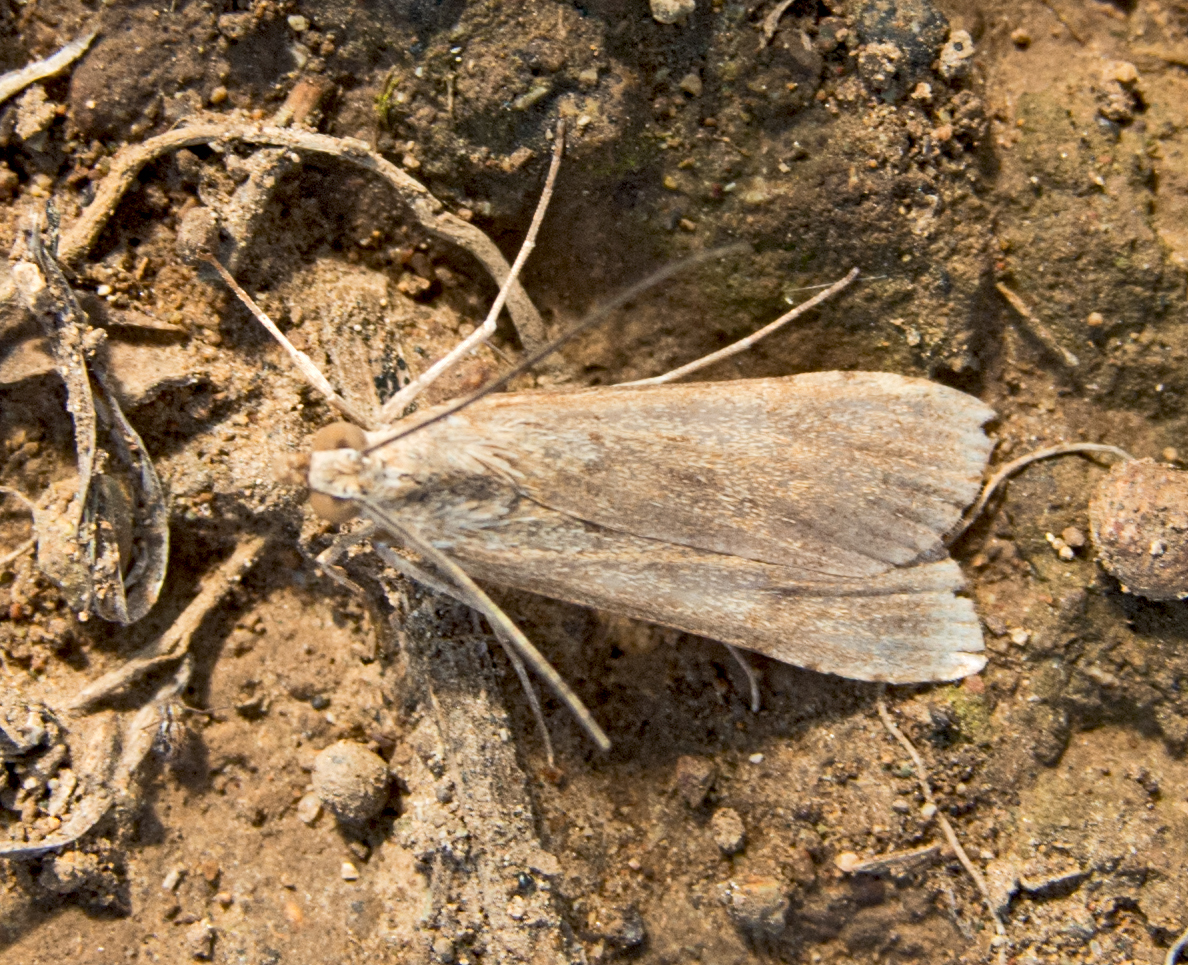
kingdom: Animalia
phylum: Arthropoda
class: Insecta
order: Lepidoptera
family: Crambidae
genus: Nomophila
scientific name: Nomophila noctuella
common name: Rush veneer
